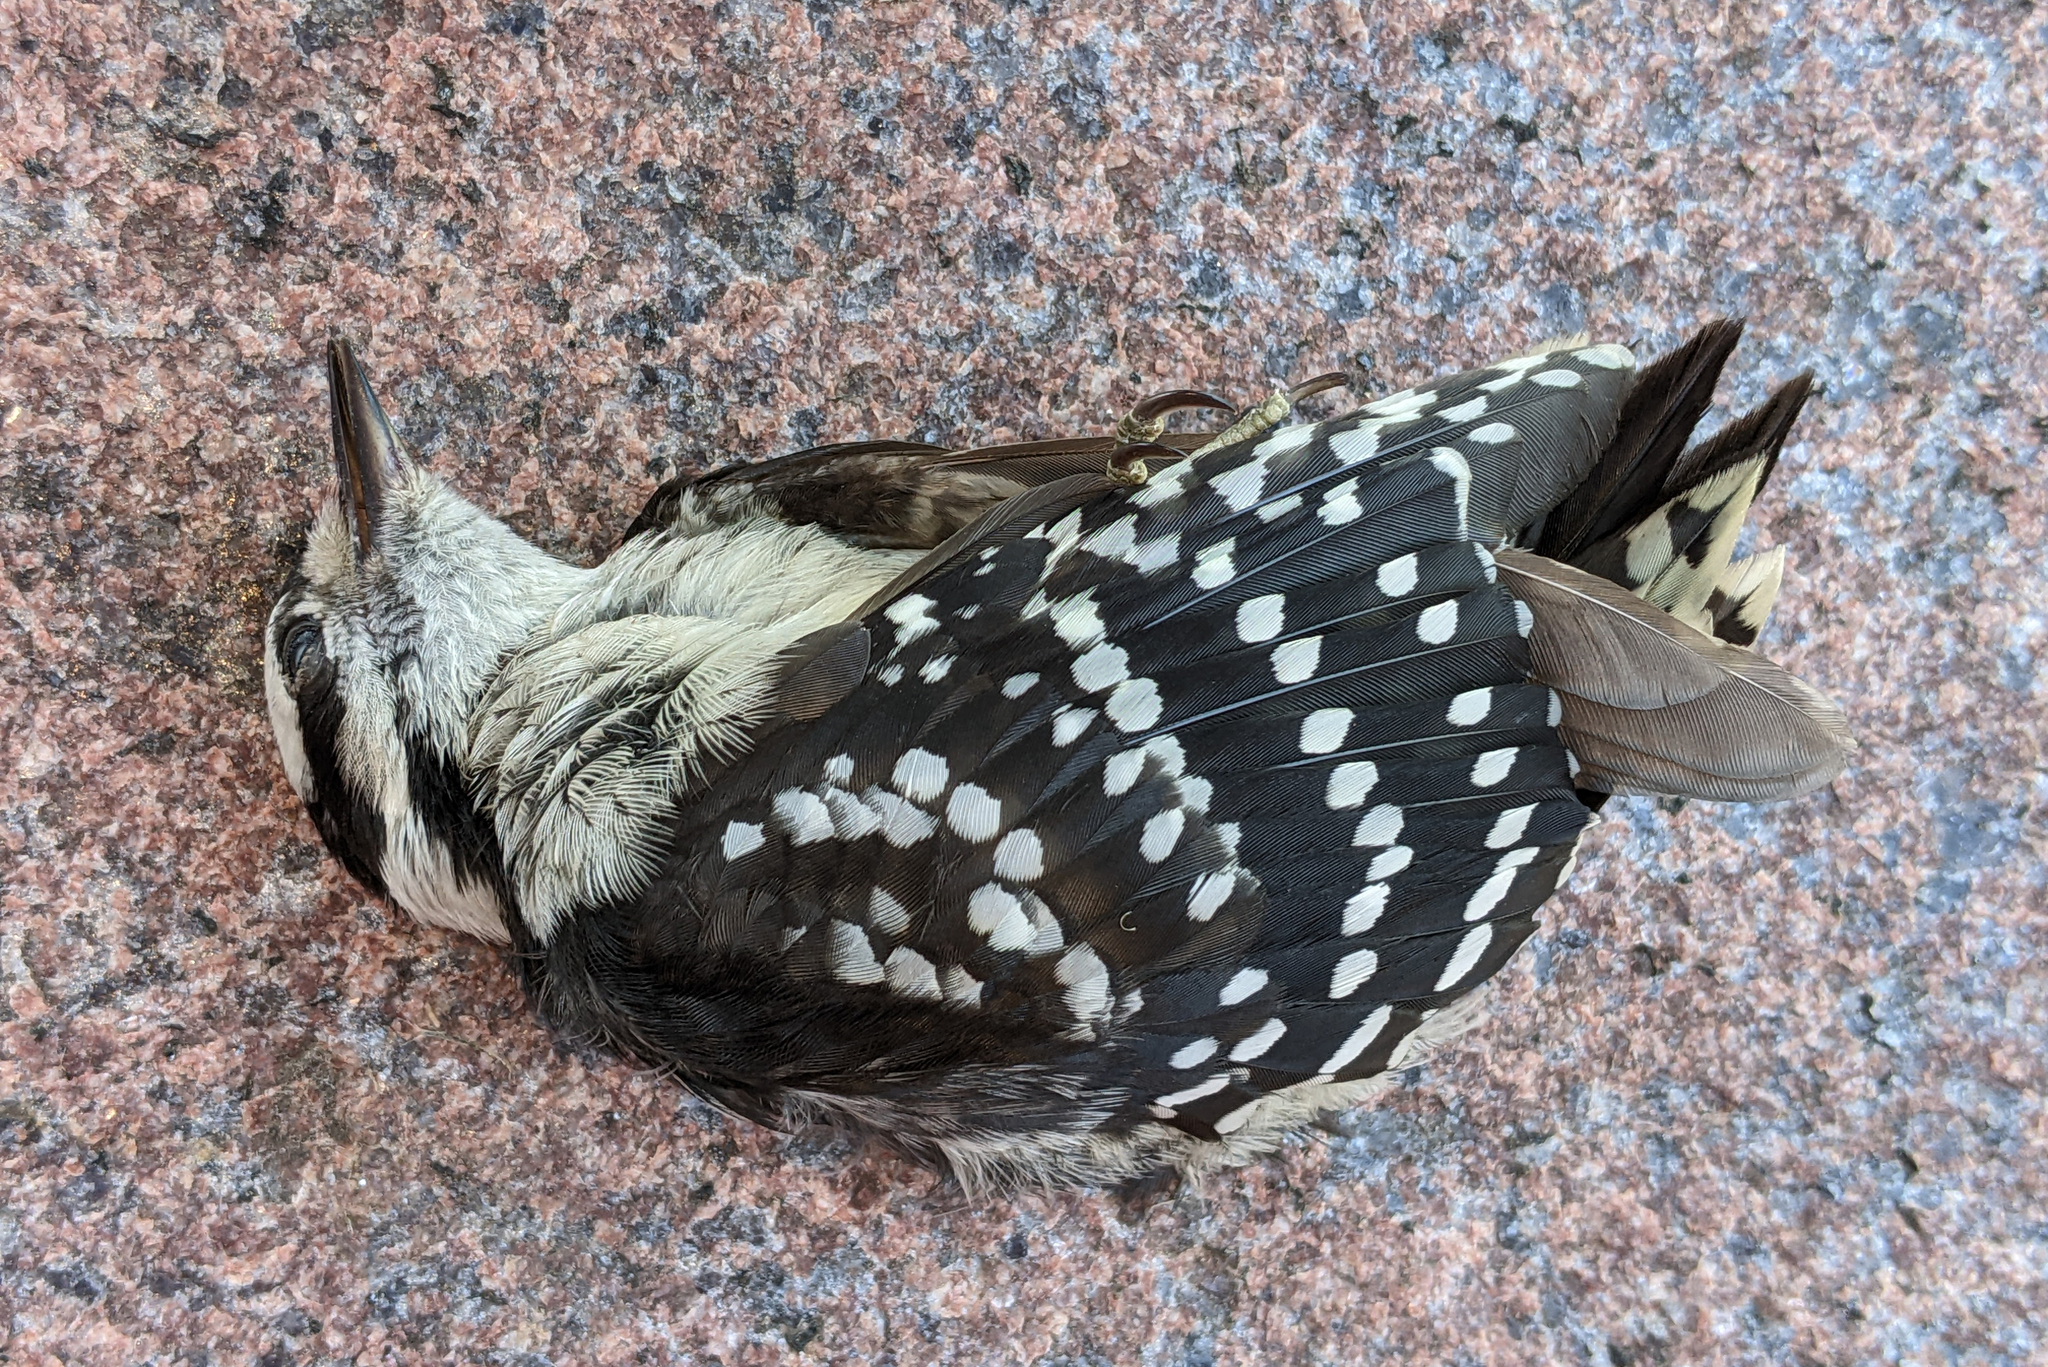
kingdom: Animalia
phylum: Chordata
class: Aves
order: Piciformes
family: Picidae
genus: Dryobates
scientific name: Dryobates pubescens
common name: Downy woodpecker
